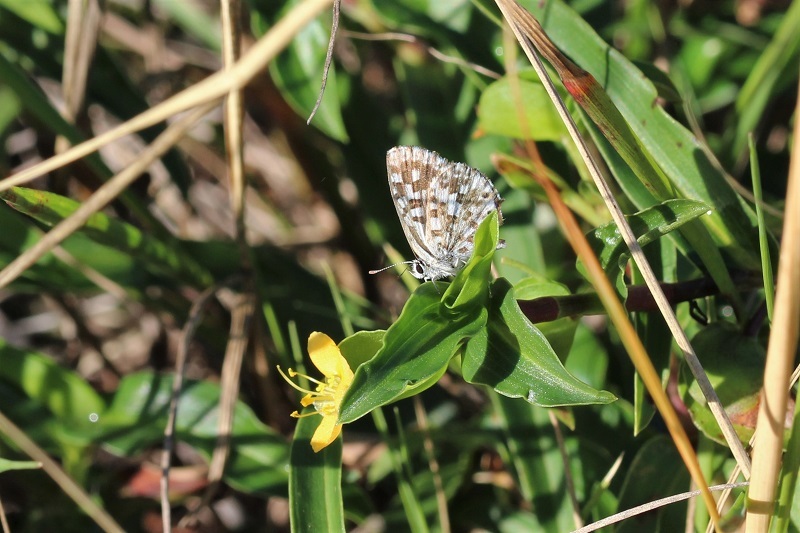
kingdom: Animalia
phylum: Arthropoda
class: Insecta
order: Lepidoptera
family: Lycaenidae
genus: Tarucus
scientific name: Tarucus thespis
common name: Vivid dotted blue
